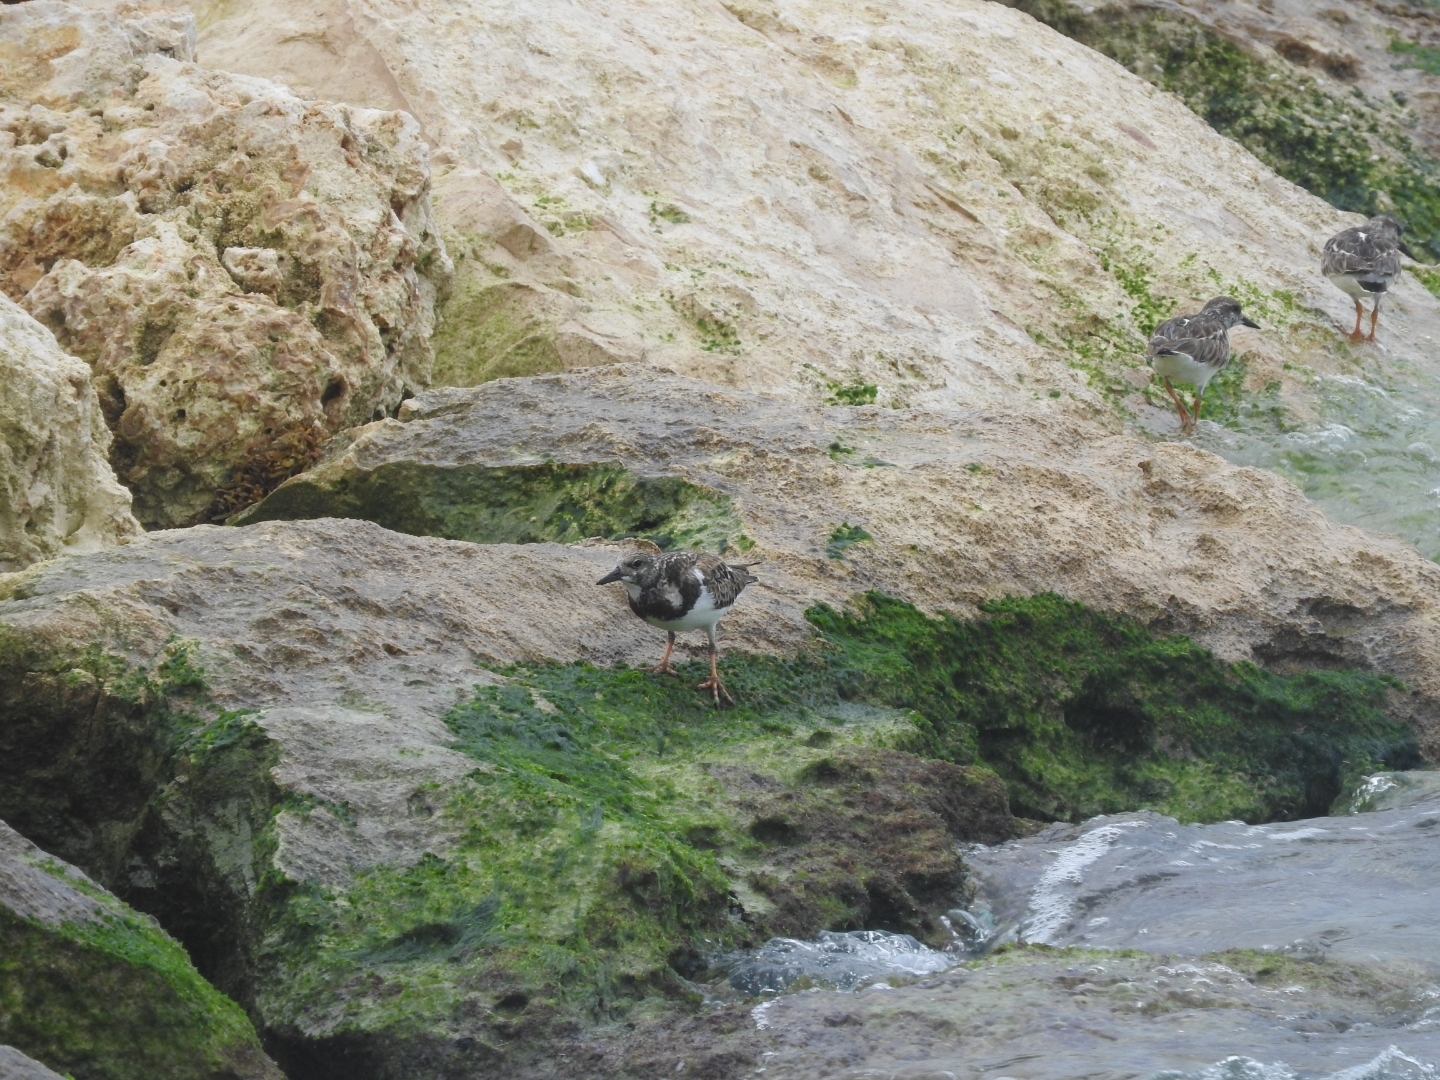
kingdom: Animalia
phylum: Chordata
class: Aves
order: Charadriiformes
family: Scolopacidae
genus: Arenaria
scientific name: Arenaria interpres
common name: Ruddy turnstone
